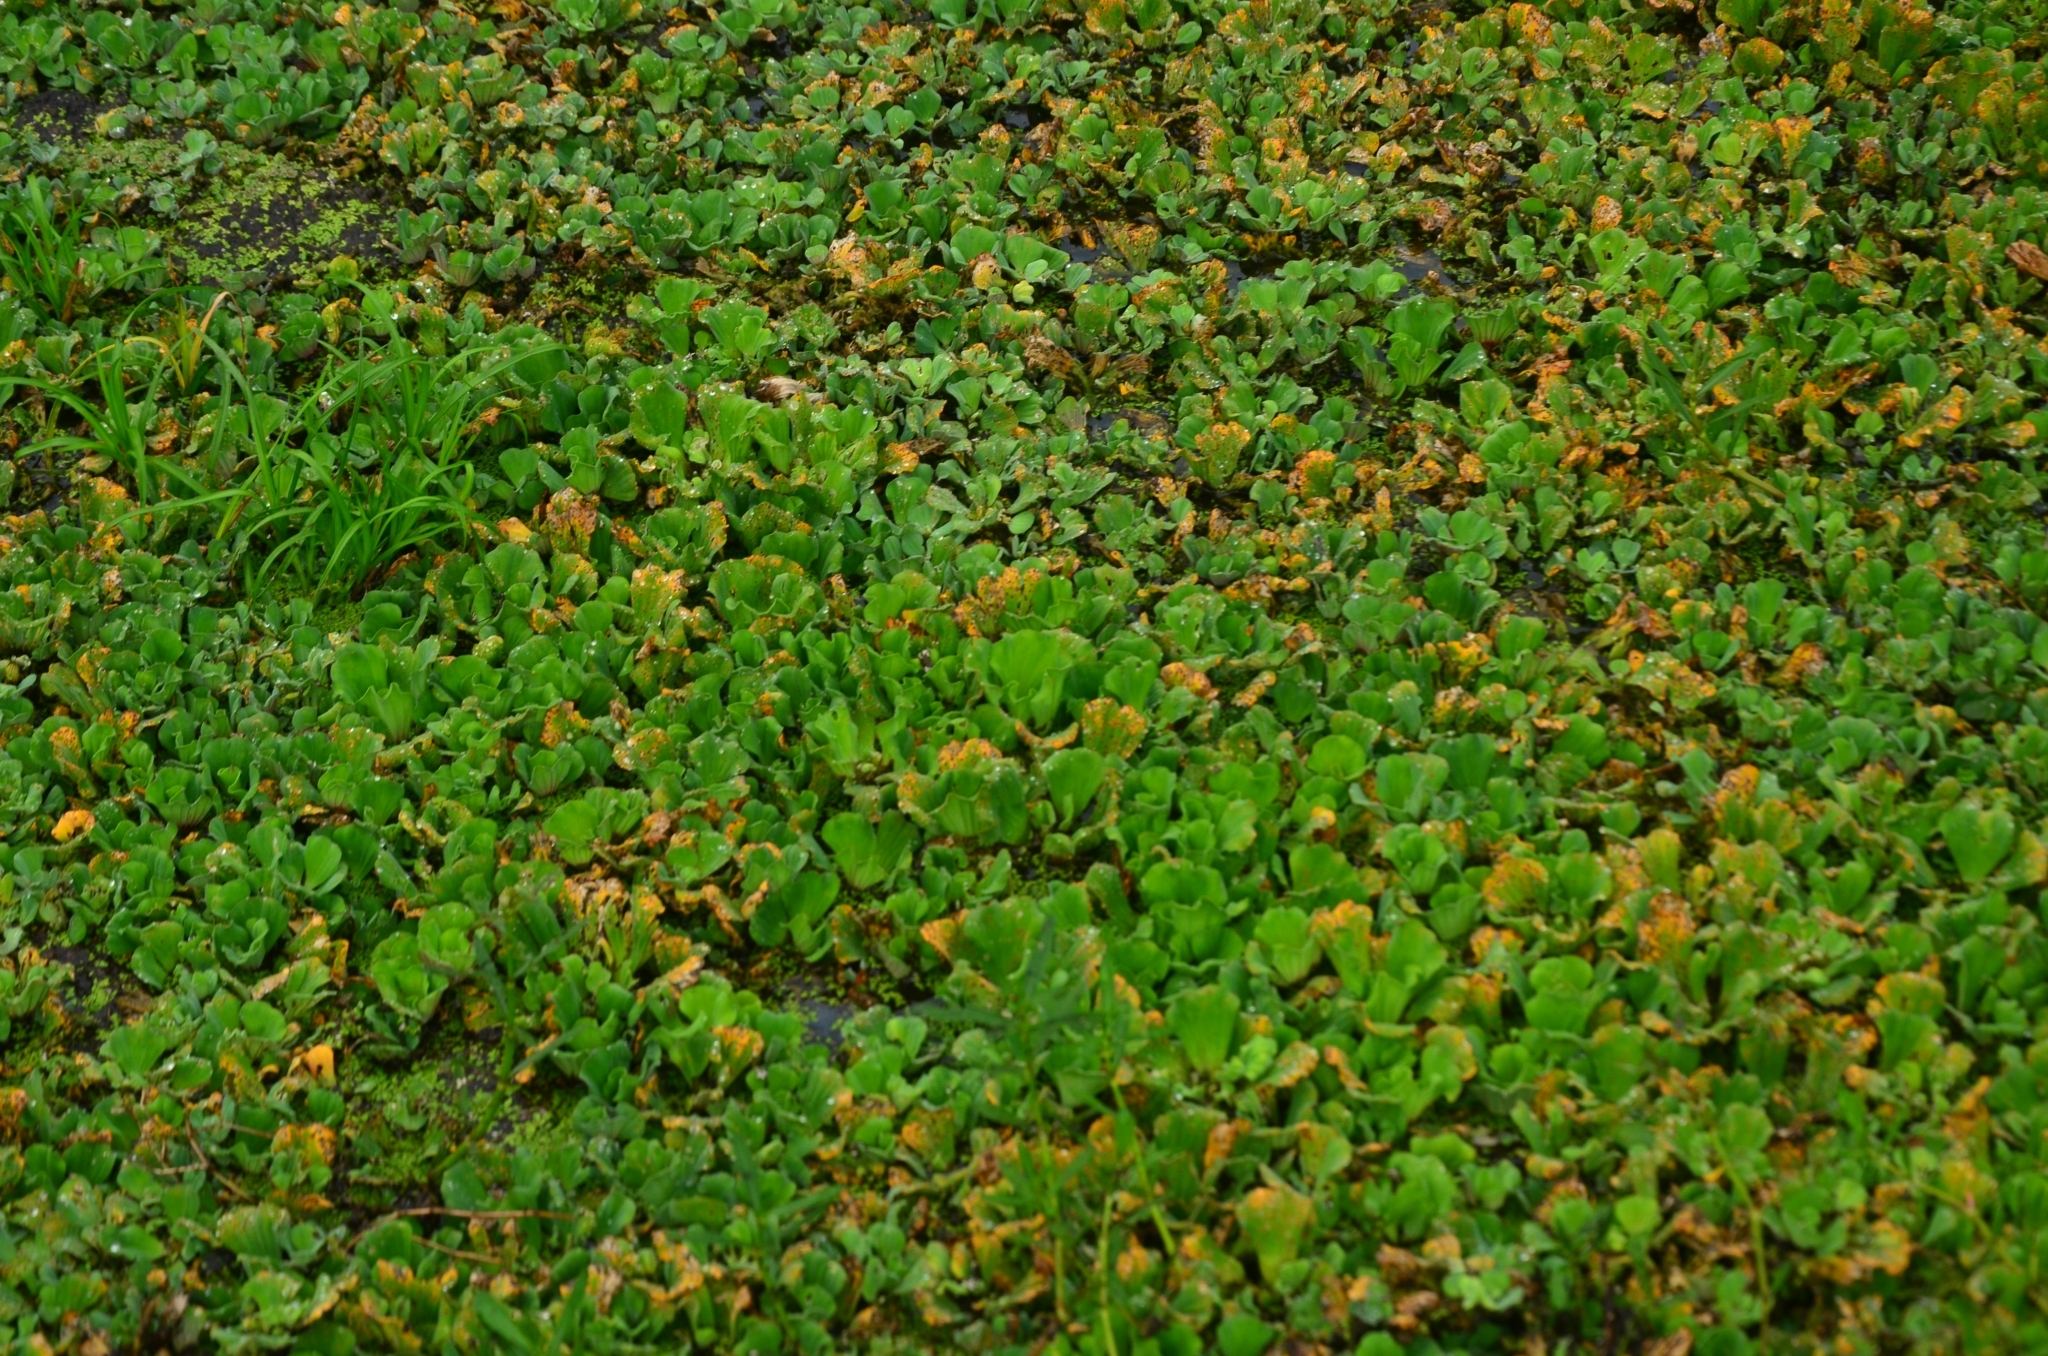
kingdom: Plantae
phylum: Tracheophyta
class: Liliopsida
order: Alismatales
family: Araceae
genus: Pistia
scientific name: Pistia stratiotes
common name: Water lettuce
